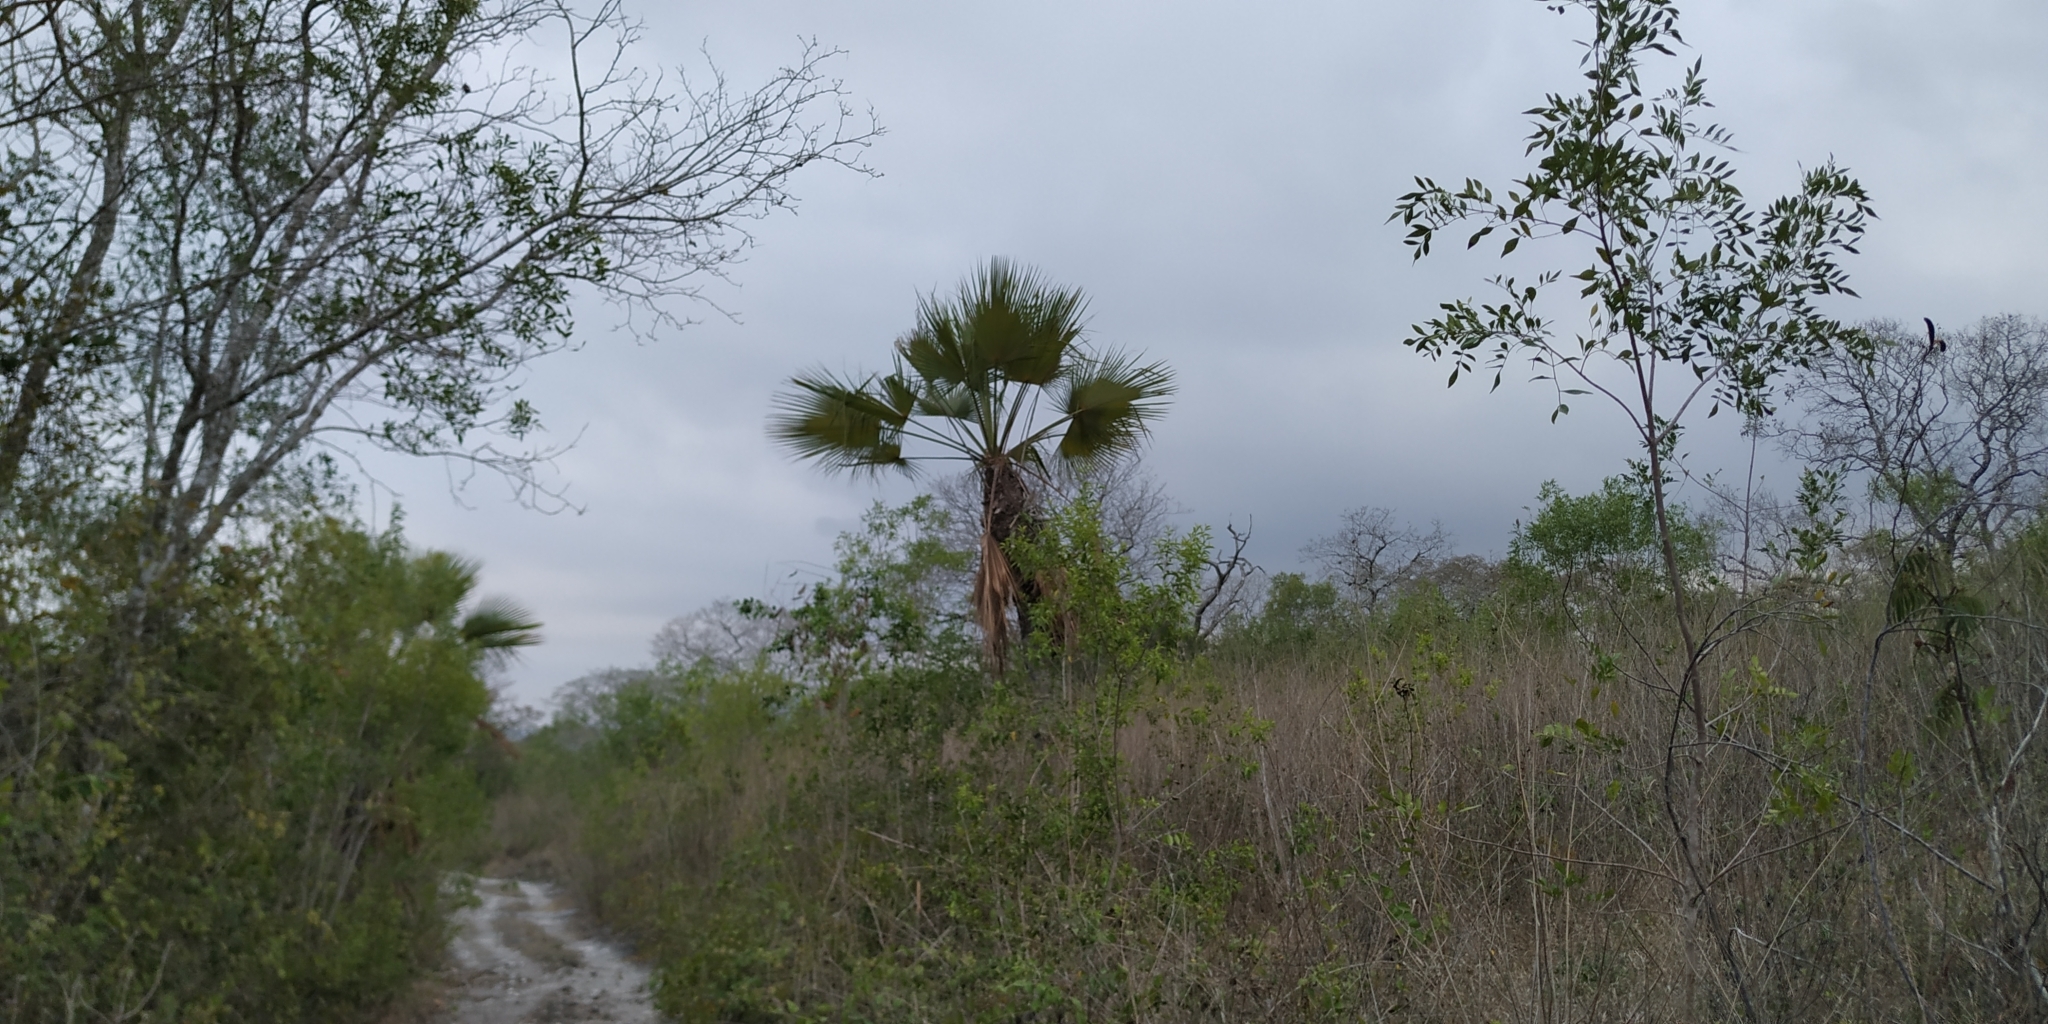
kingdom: Plantae
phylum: Tracheophyta
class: Liliopsida
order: Arecales
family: Arecaceae
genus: Brahea
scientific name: Brahea dulcis
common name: Apak palm
